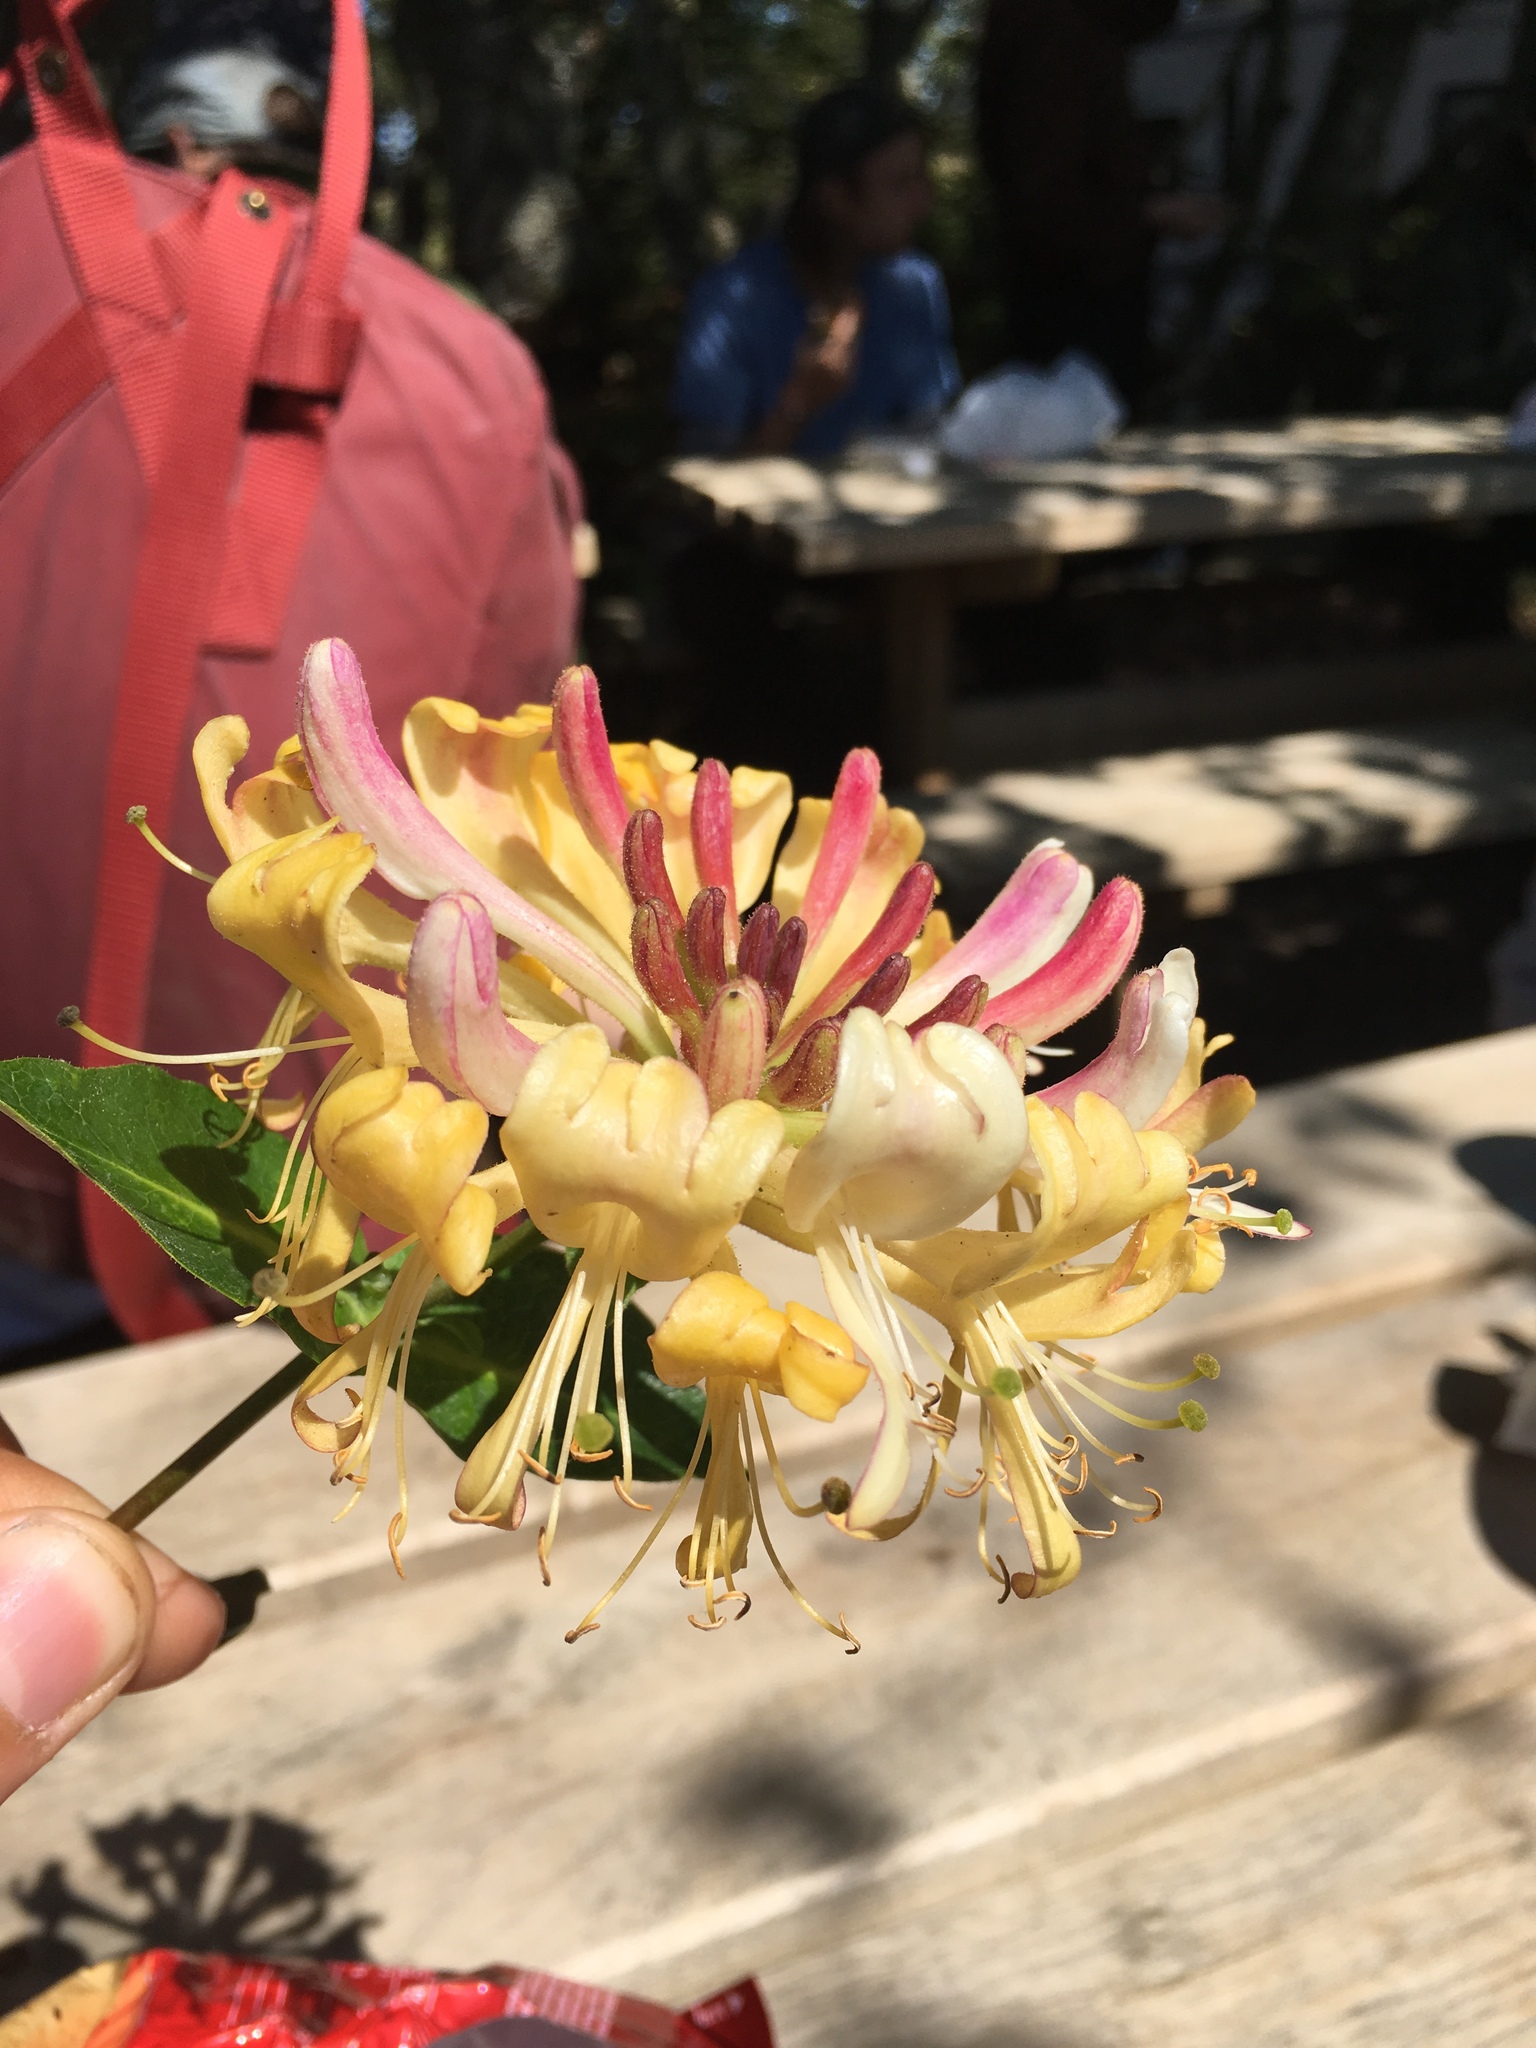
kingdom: Plantae
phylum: Tracheophyta
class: Magnoliopsida
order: Dipsacales
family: Caprifoliaceae
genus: Lonicera
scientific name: Lonicera periclymenum
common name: European honeysuckle
